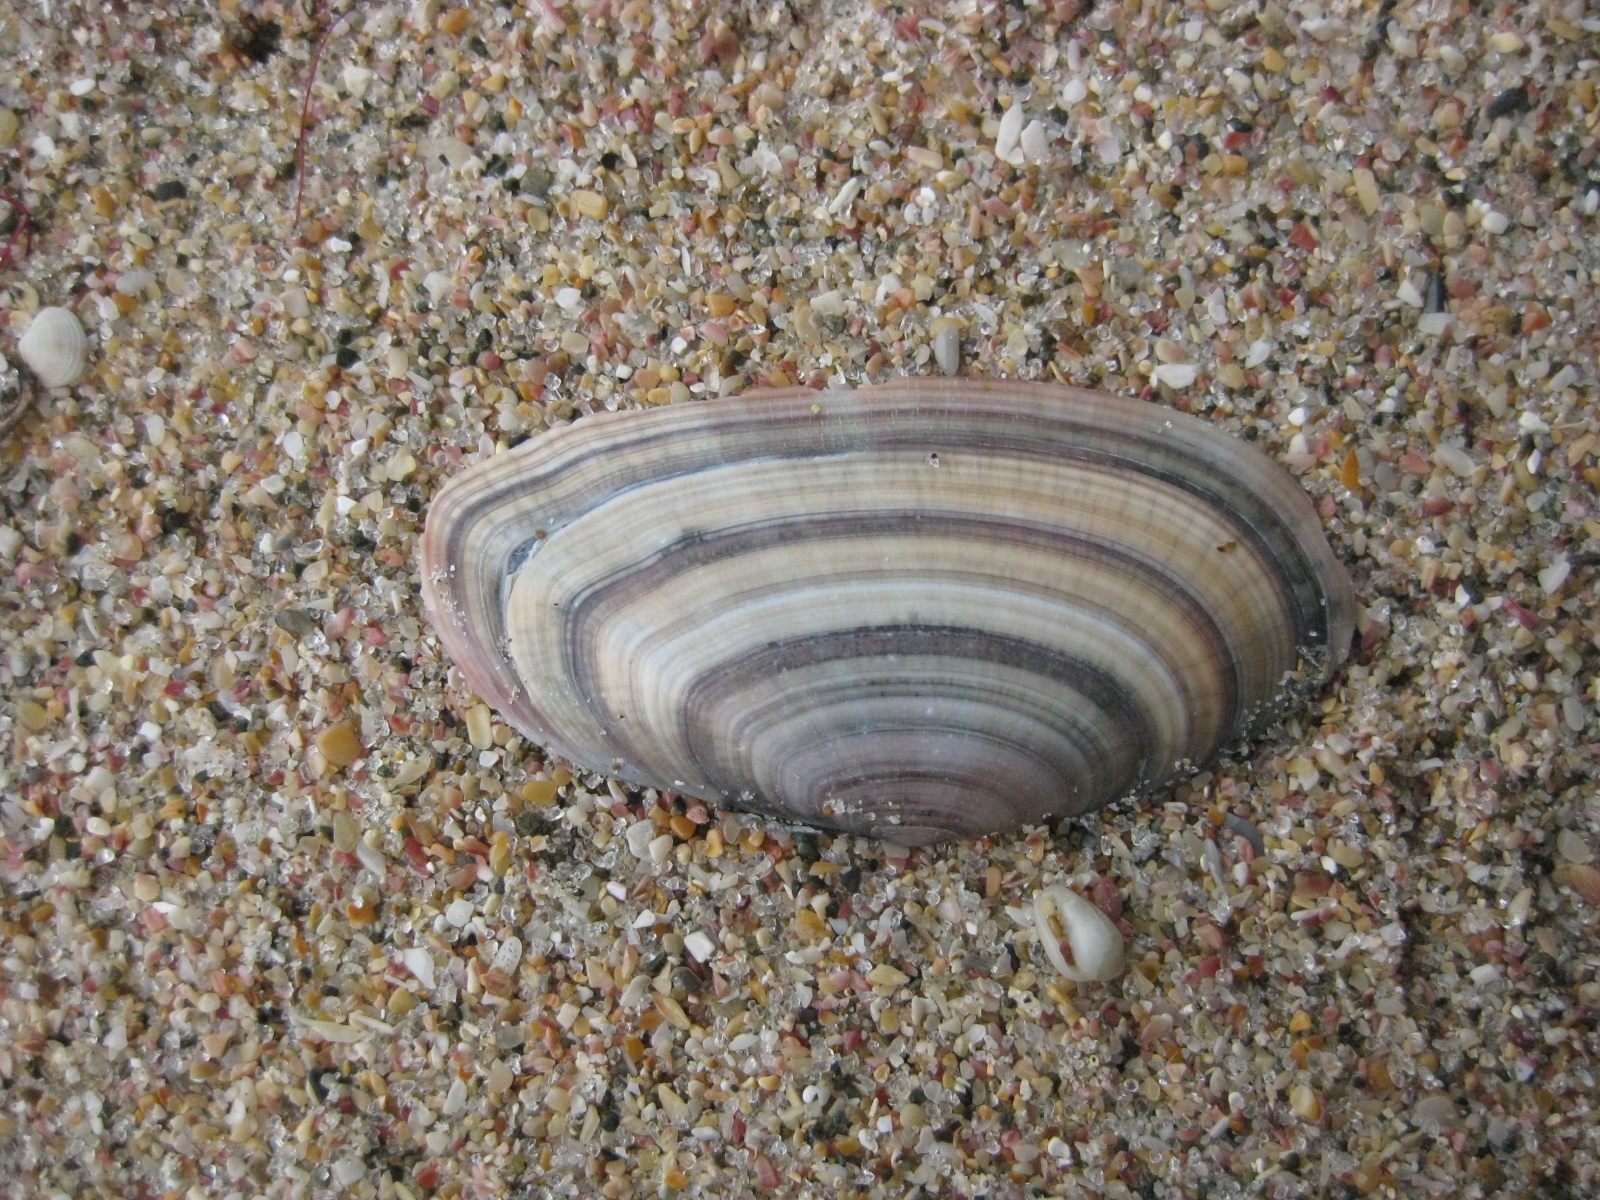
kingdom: Animalia
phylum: Mollusca
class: Bivalvia
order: Cardiida
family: Psammobiidae
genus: Gari
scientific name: Gari convexa
